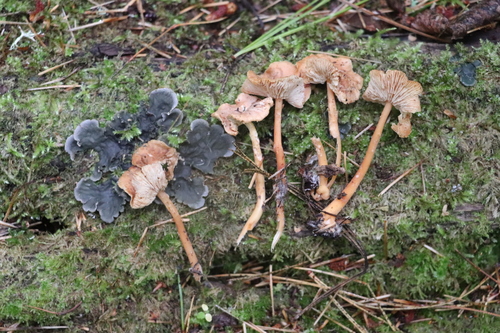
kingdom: Fungi
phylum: Basidiomycota
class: Agaricomycetes
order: Agaricales
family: Omphalotaceae
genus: Gymnopus
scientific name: Gymnopus dryophilus
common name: Penny top
